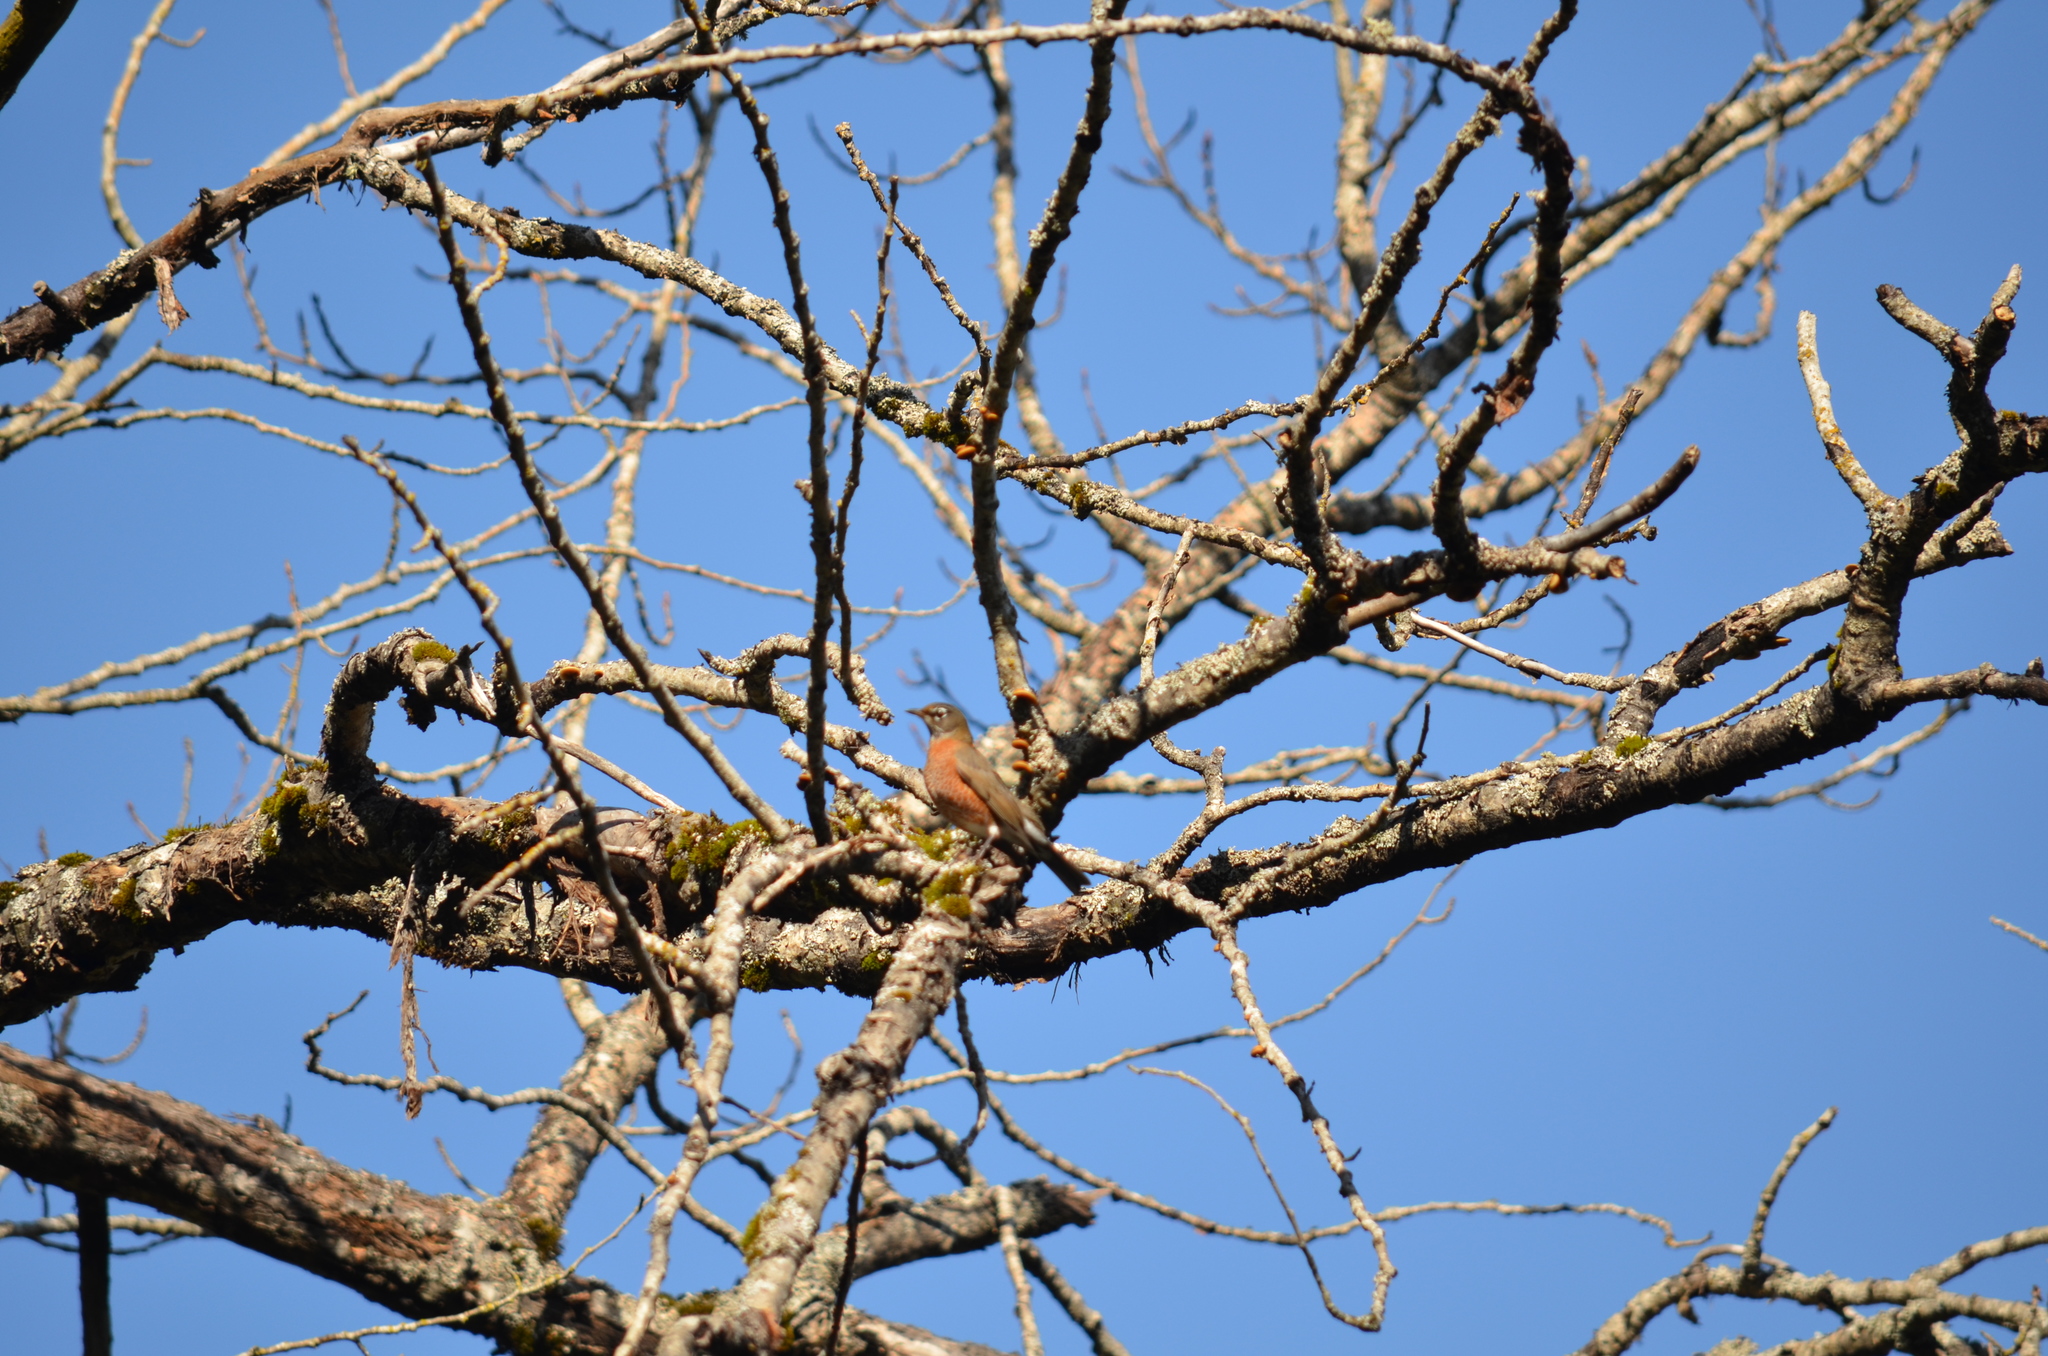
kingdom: Animalia
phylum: Chordata
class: Aves
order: Passeriformes
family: Turdidae
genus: Turdus
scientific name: Turdus migratorius
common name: American robin
